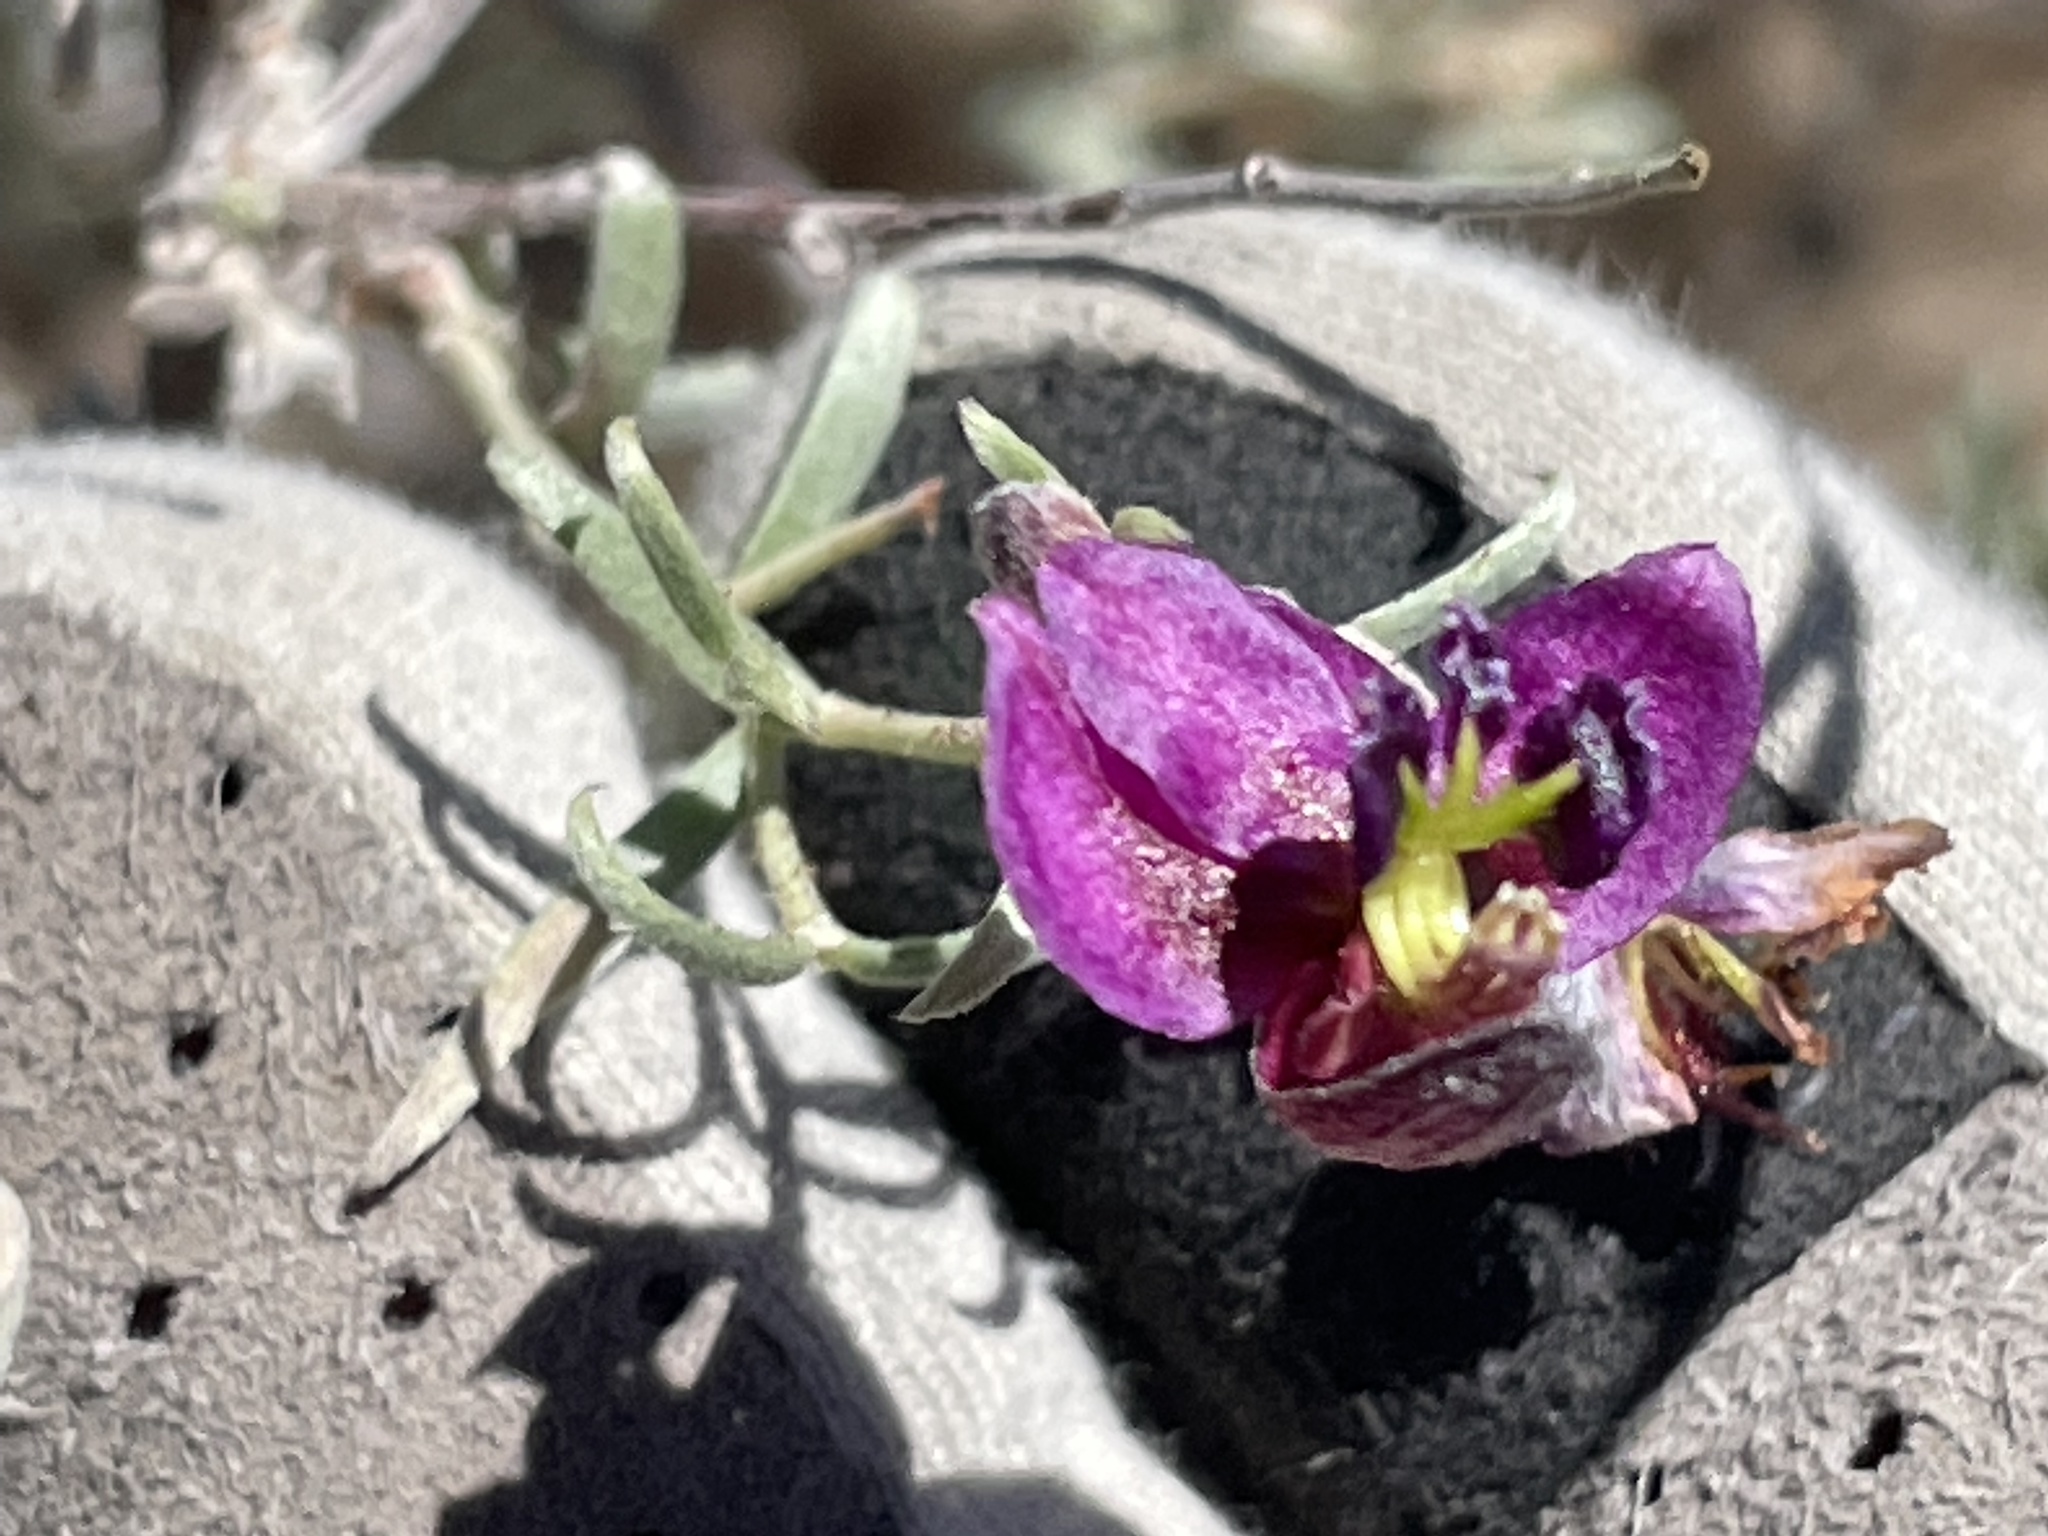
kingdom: Plantae
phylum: Tracheophyta
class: Magnoliopsida
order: Zygophyllales
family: Krameriaceae
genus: Krameria
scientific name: Krameria erecta
